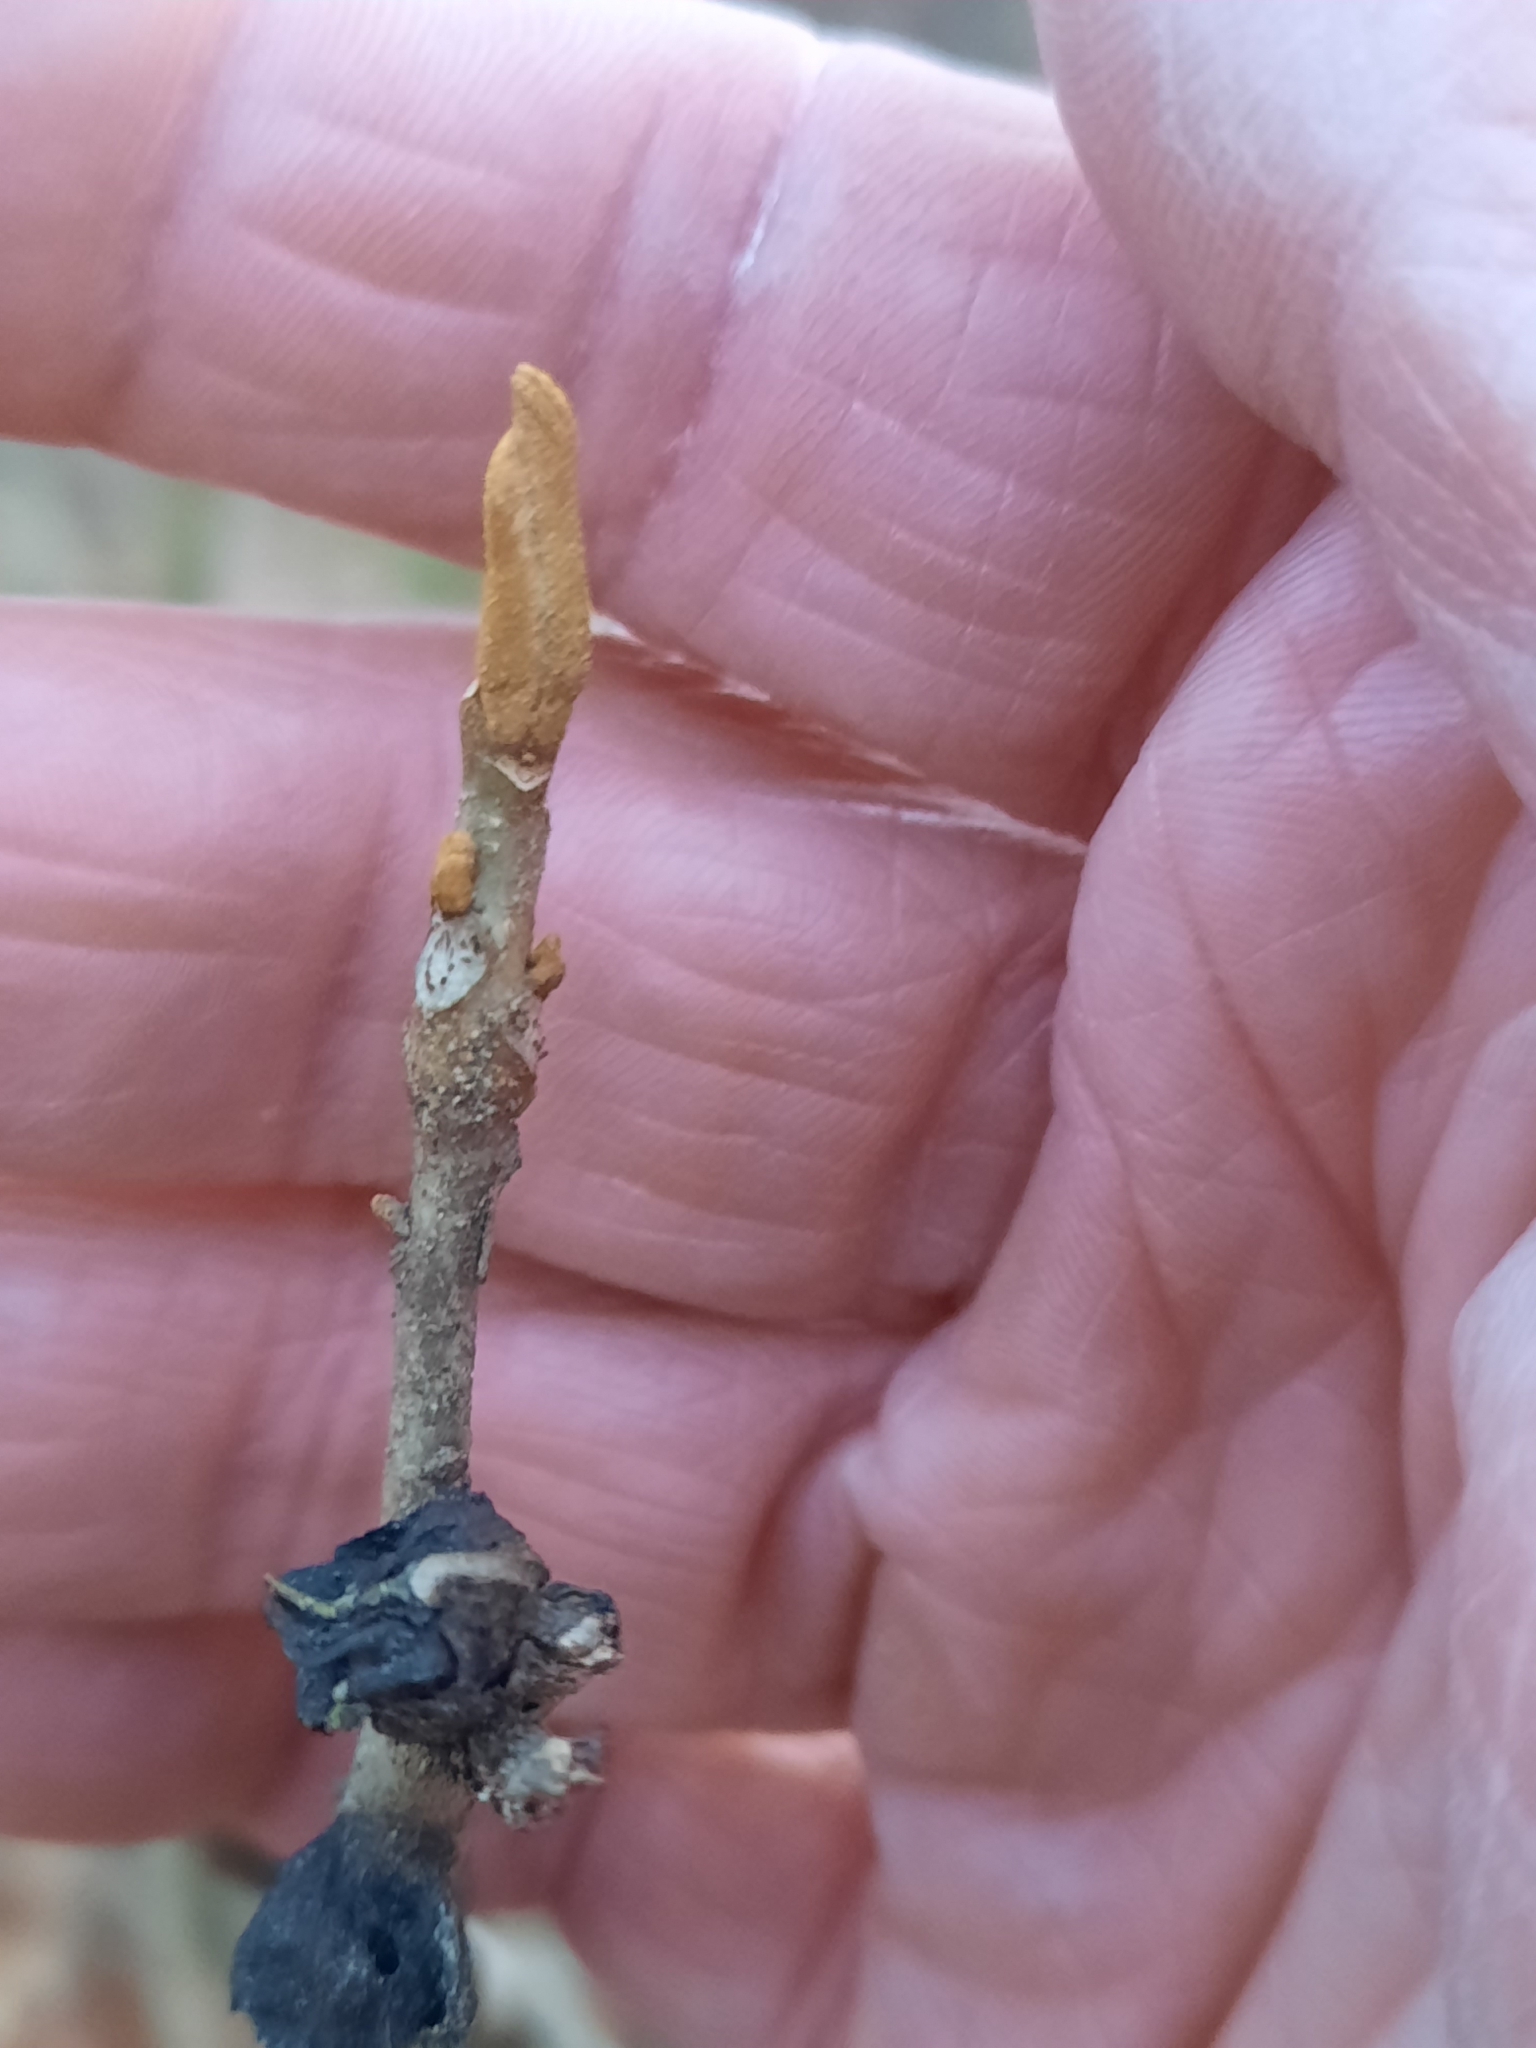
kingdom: Plantae
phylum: Tracheophyta
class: Magnoliopsida
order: Fagales
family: Juglandaceae
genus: Carya
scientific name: Carya cordiformis
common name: Bitternut hickory
